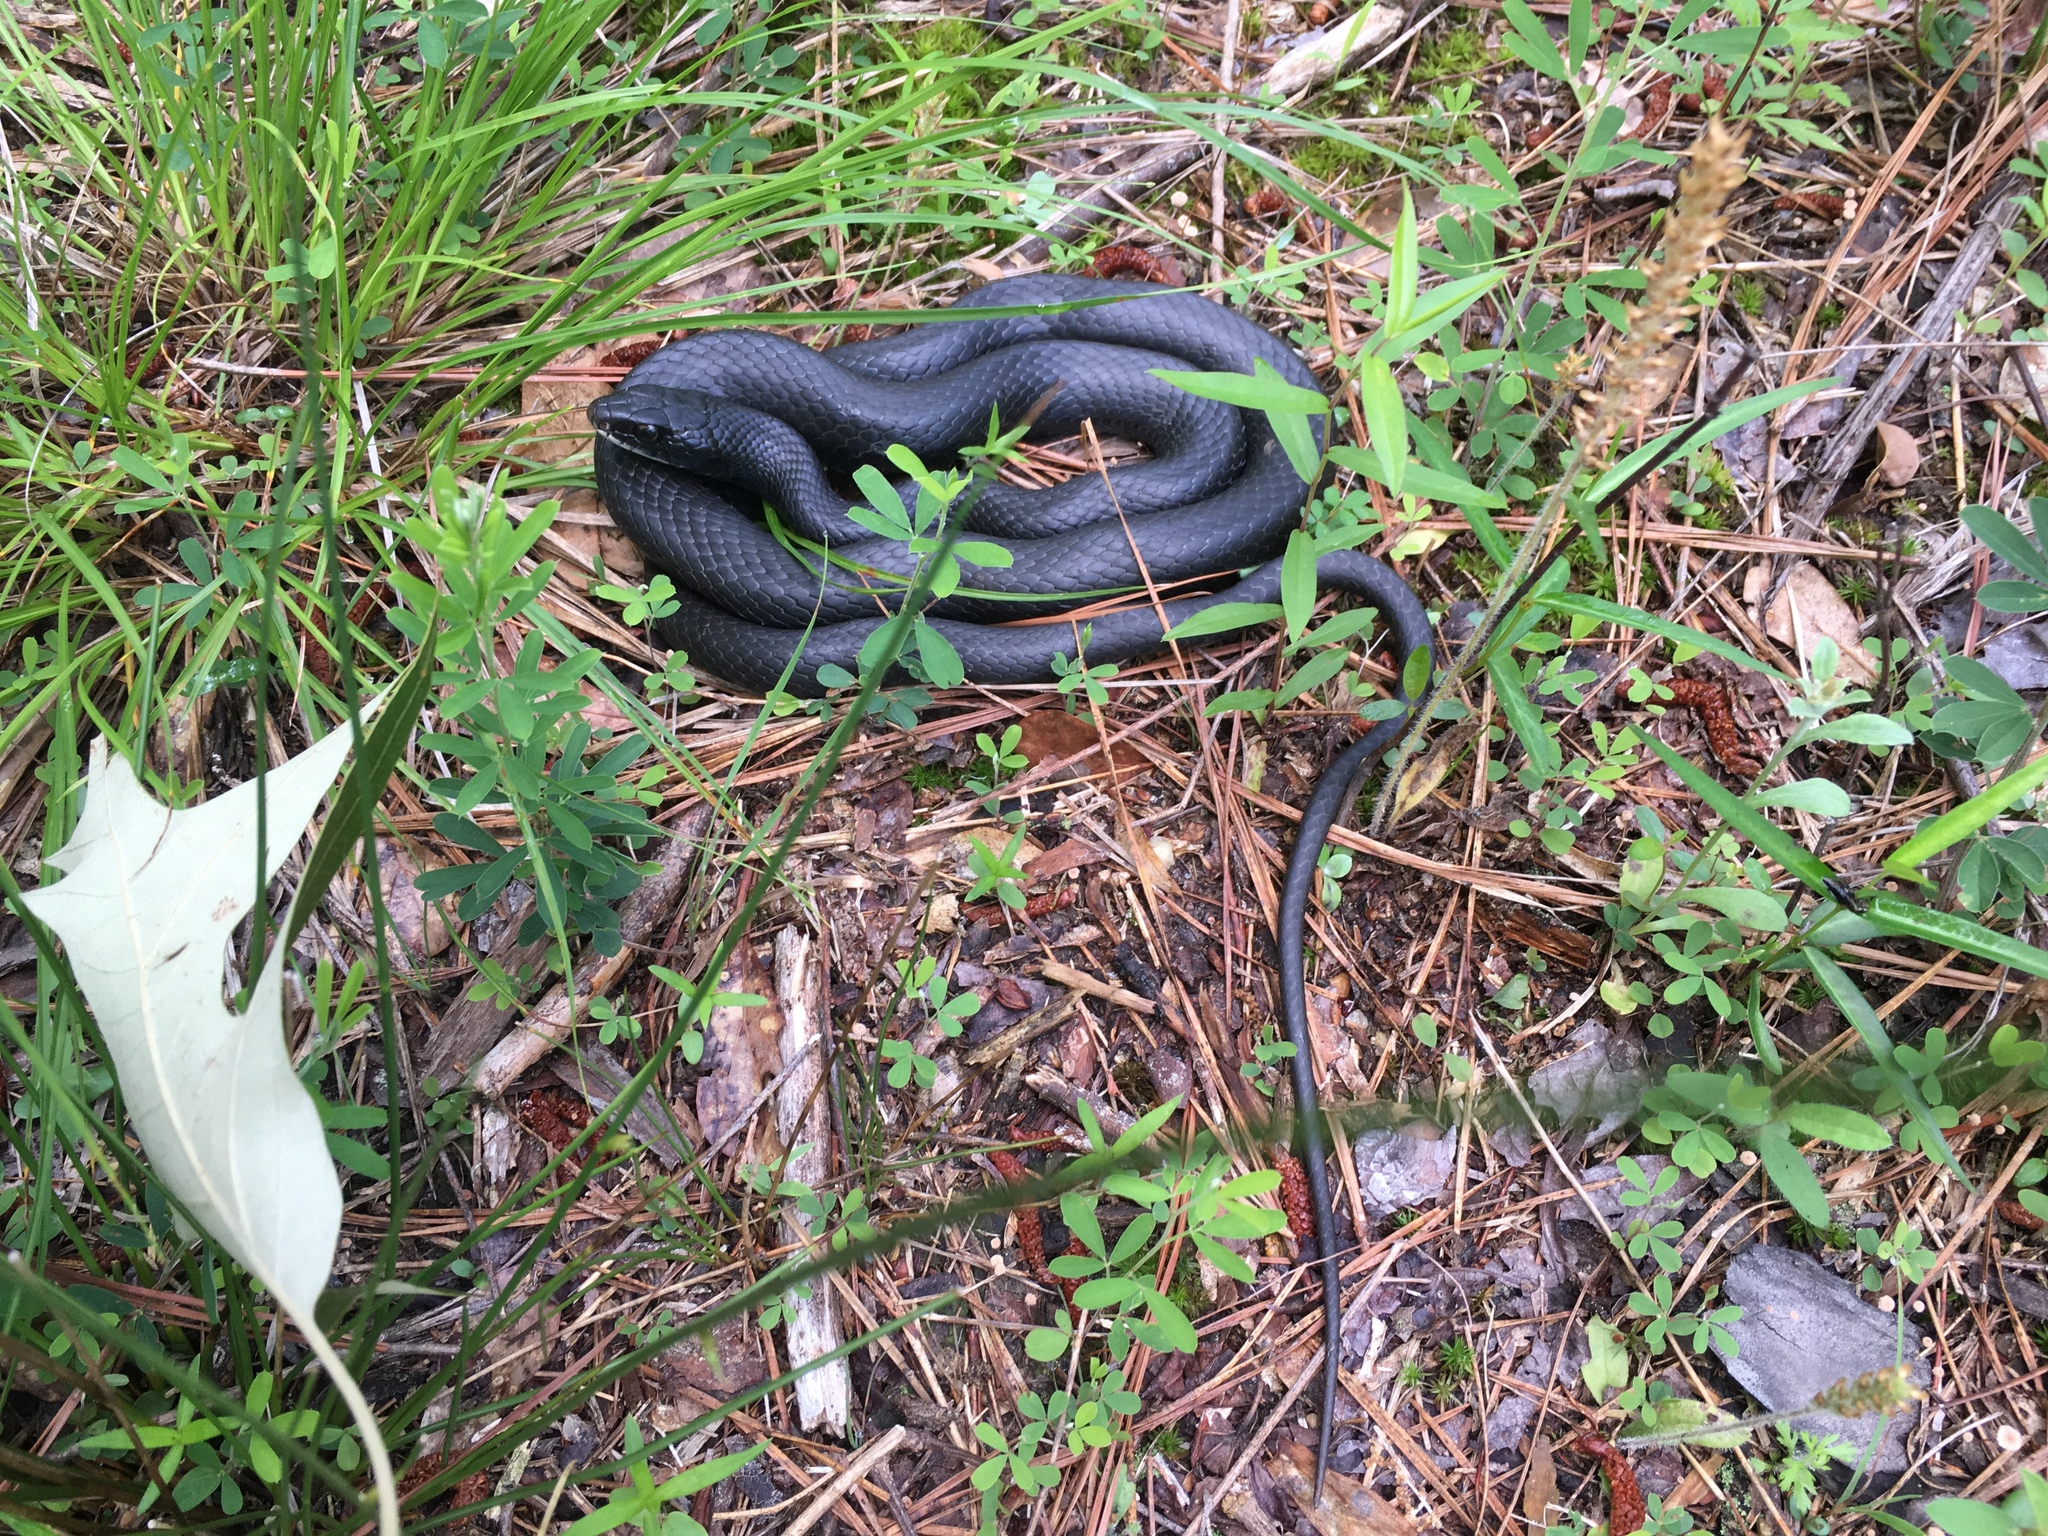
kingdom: Animalia
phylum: Chordata
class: Squamata
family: Colubridae
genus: Coluber
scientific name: Coluber constrictor
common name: Eastern racer
